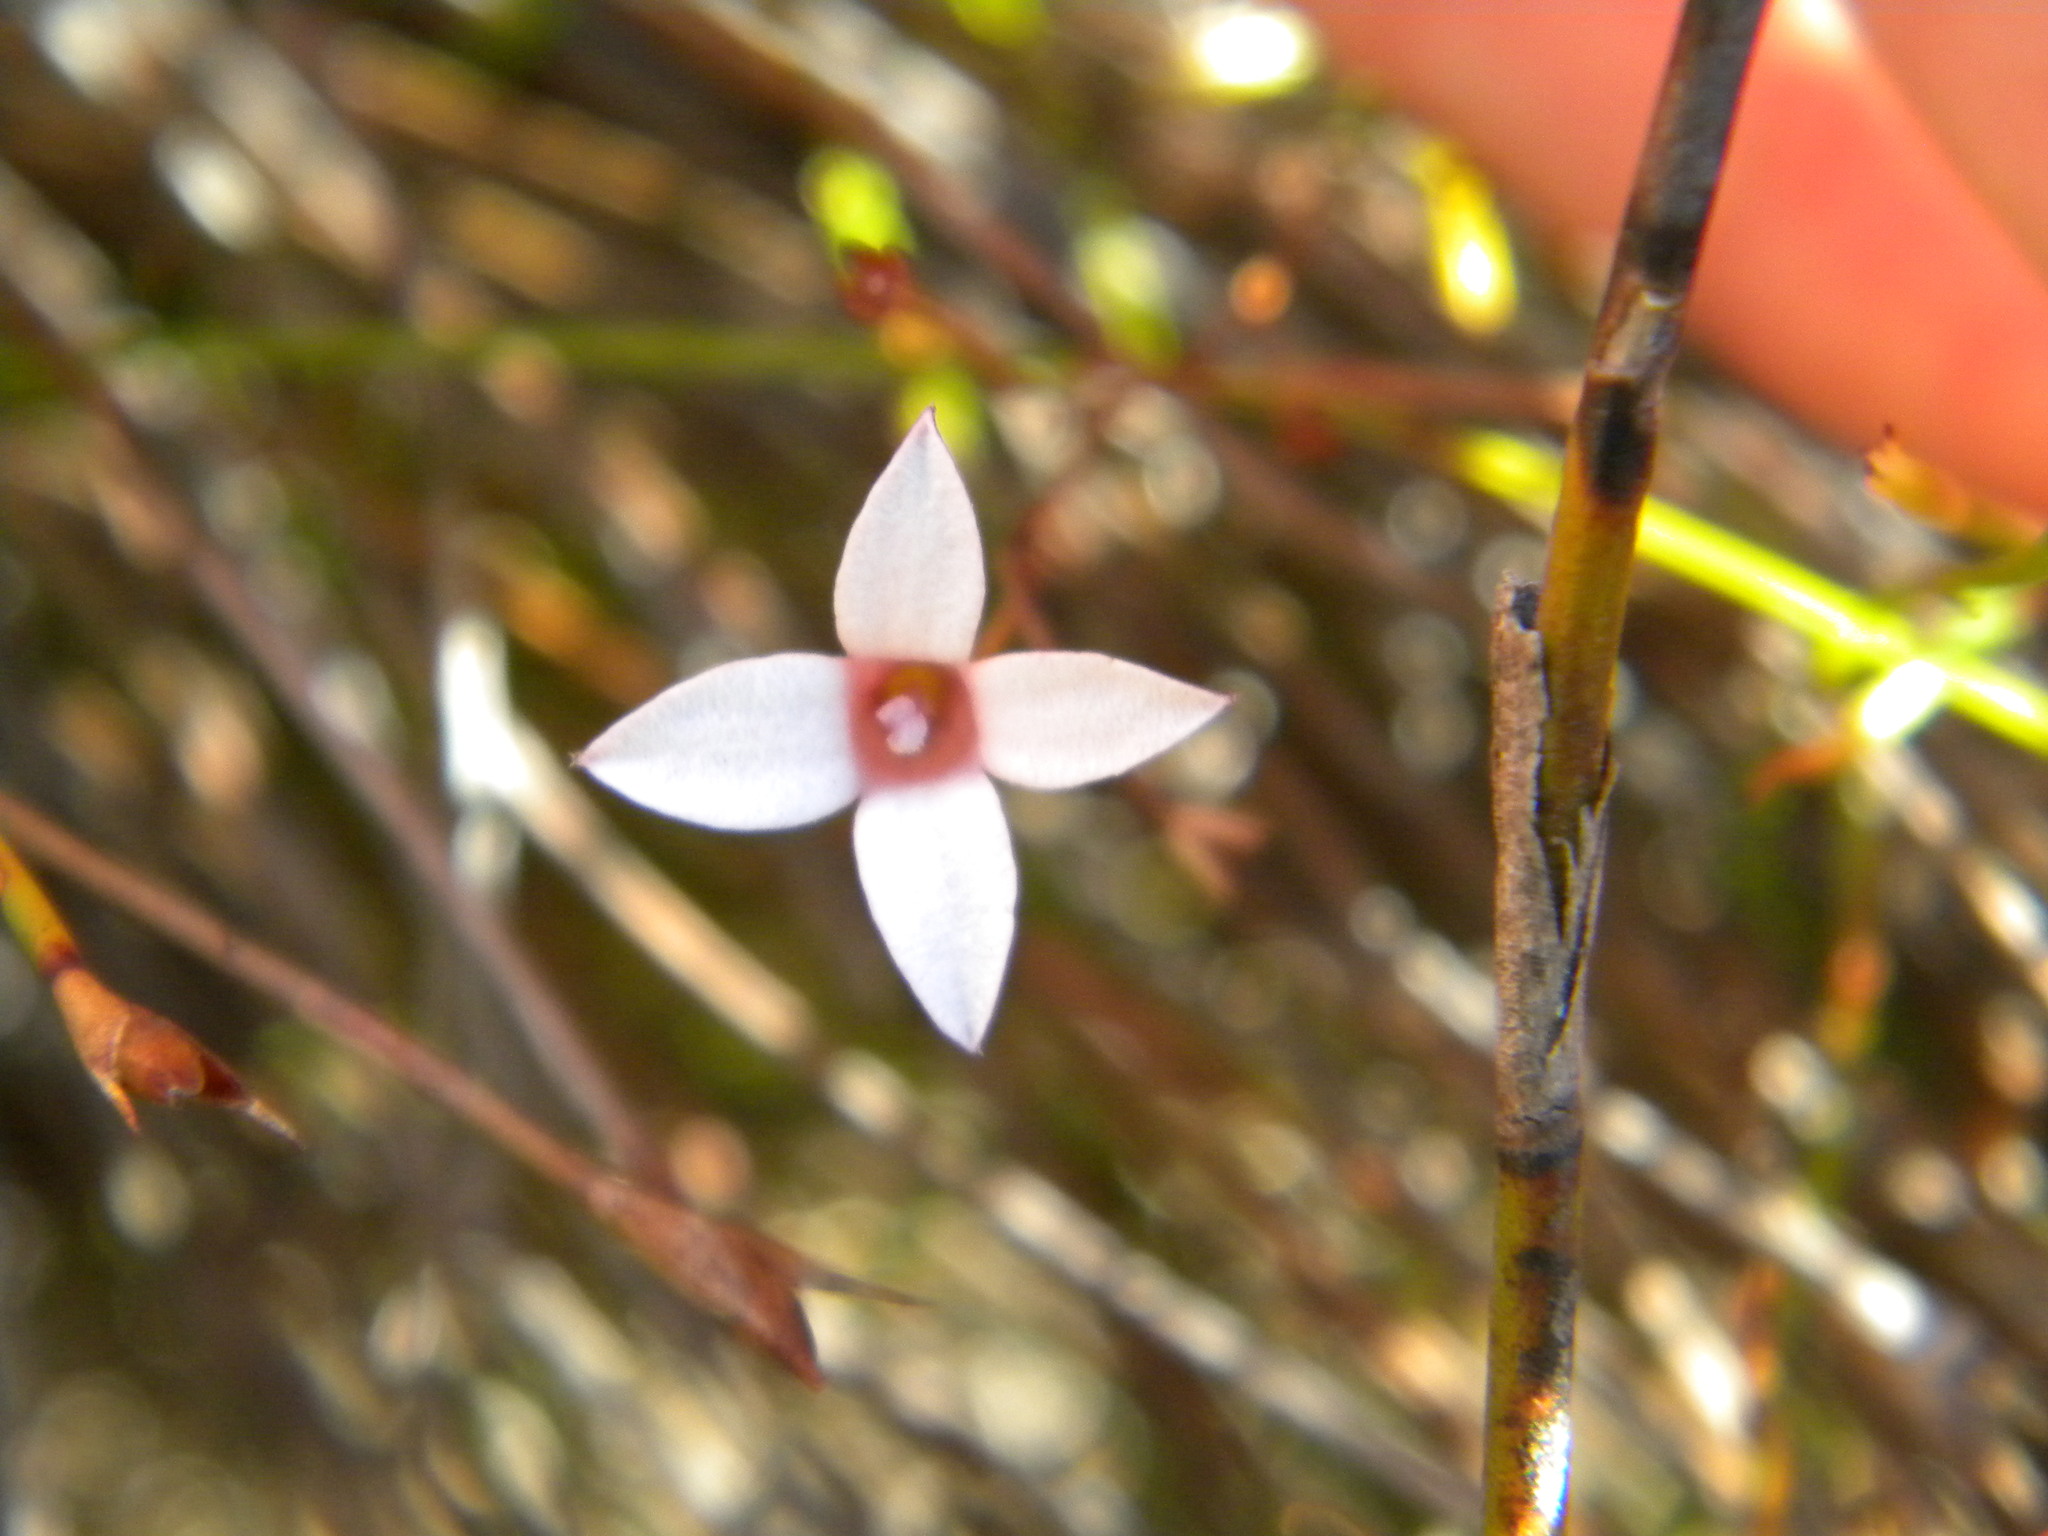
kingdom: Plantae
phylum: Tracheophyta
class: Magnoliopsida
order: Asterales
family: Campanulaceae
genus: Prismatocarpus
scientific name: Prismatocarpus fruticosus
